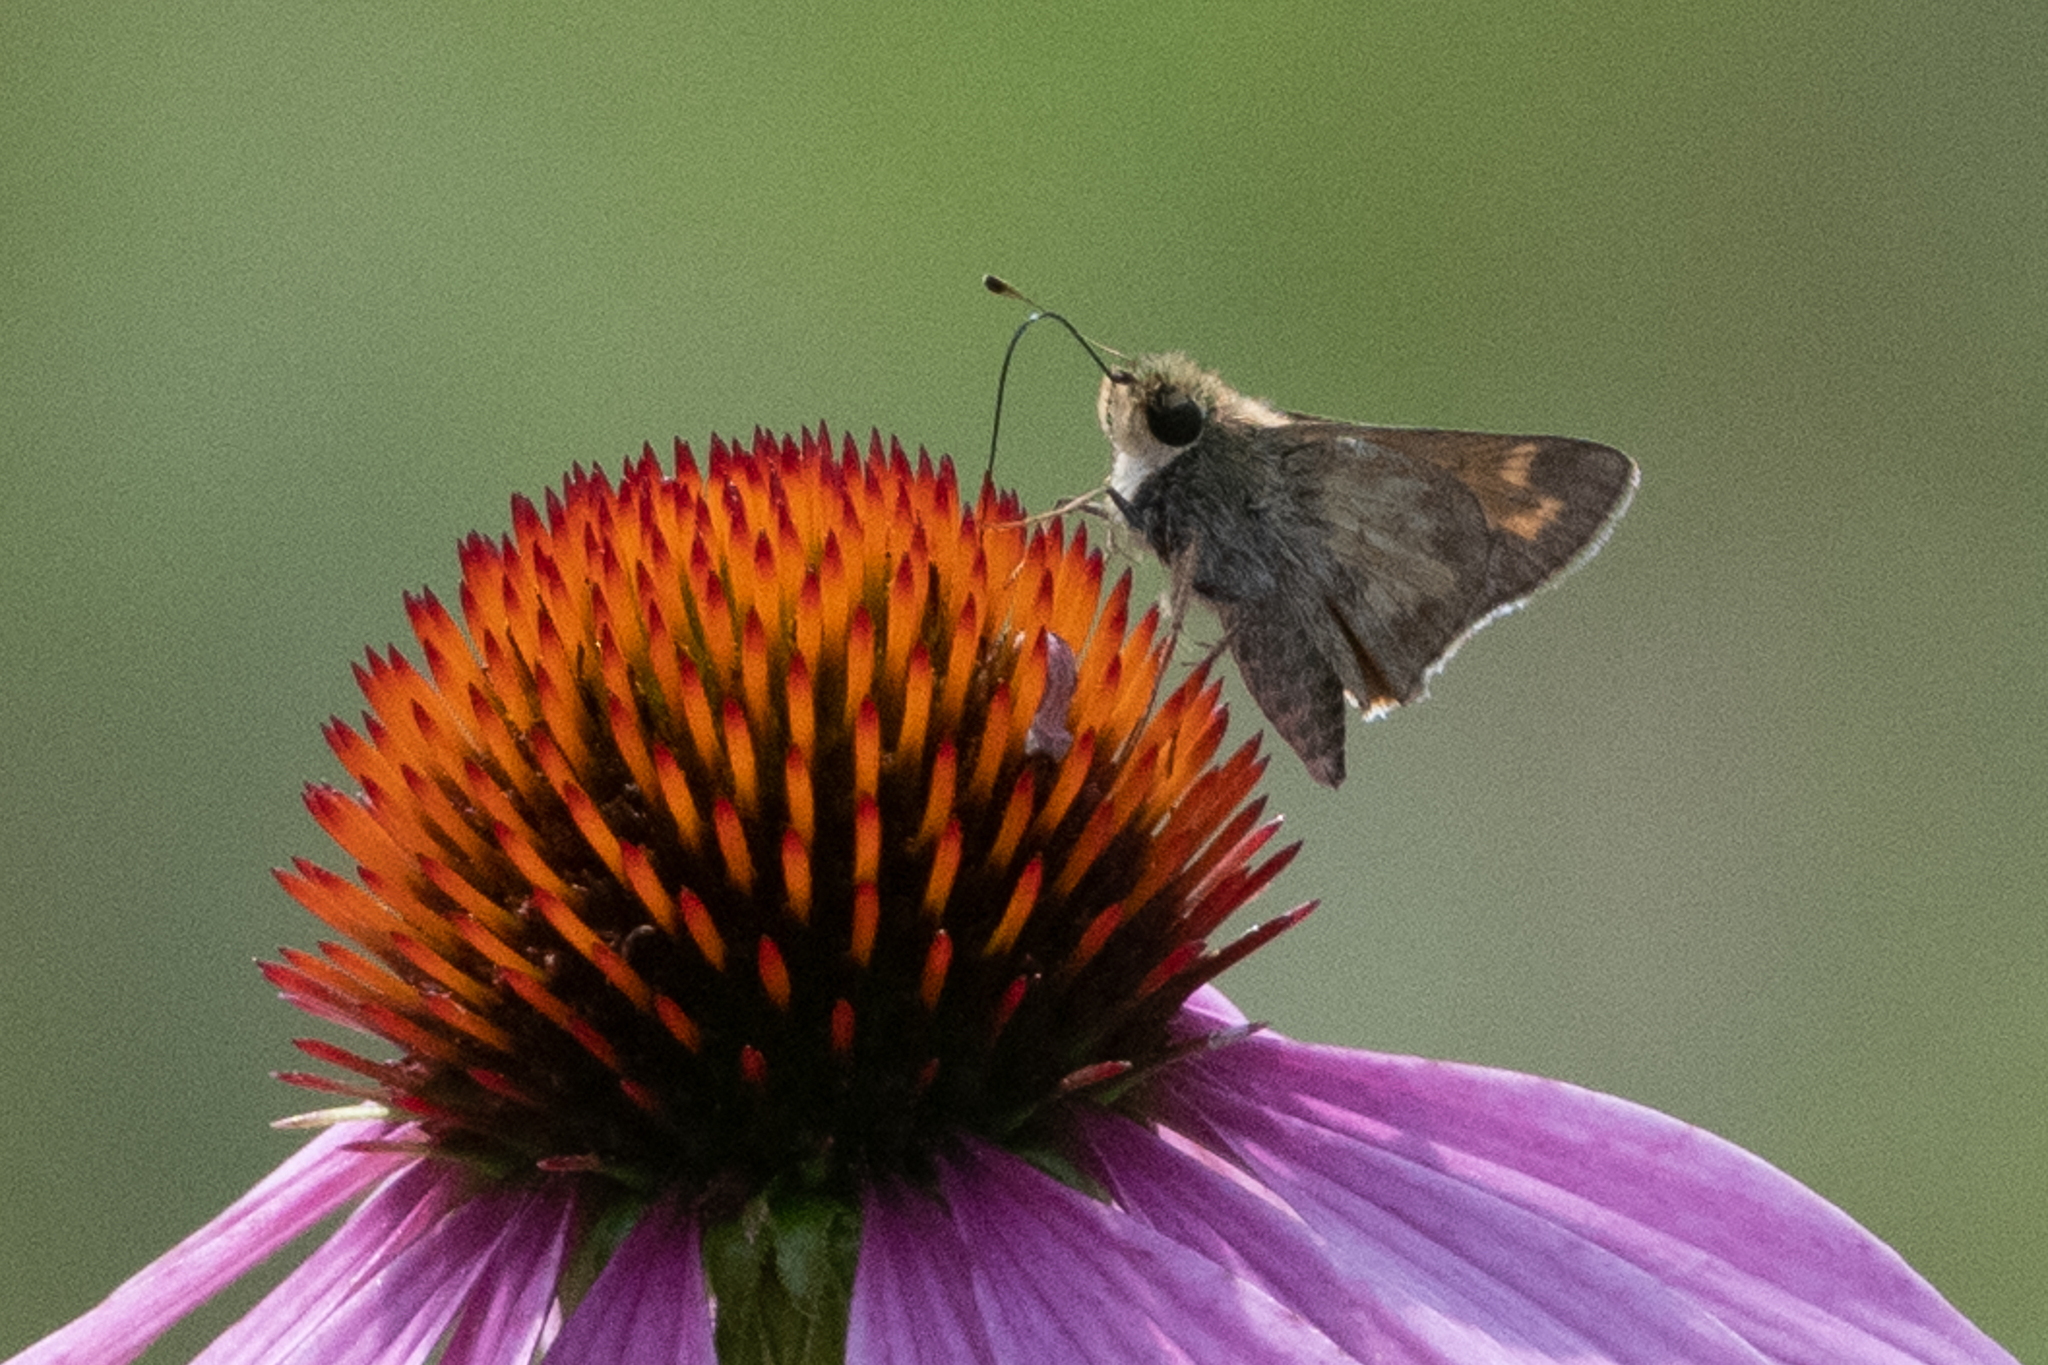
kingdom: Animalia
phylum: Arthropoda
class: Insecta
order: Lepidoptera
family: Hesperiidae
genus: Atalopedes
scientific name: Atalopedes
